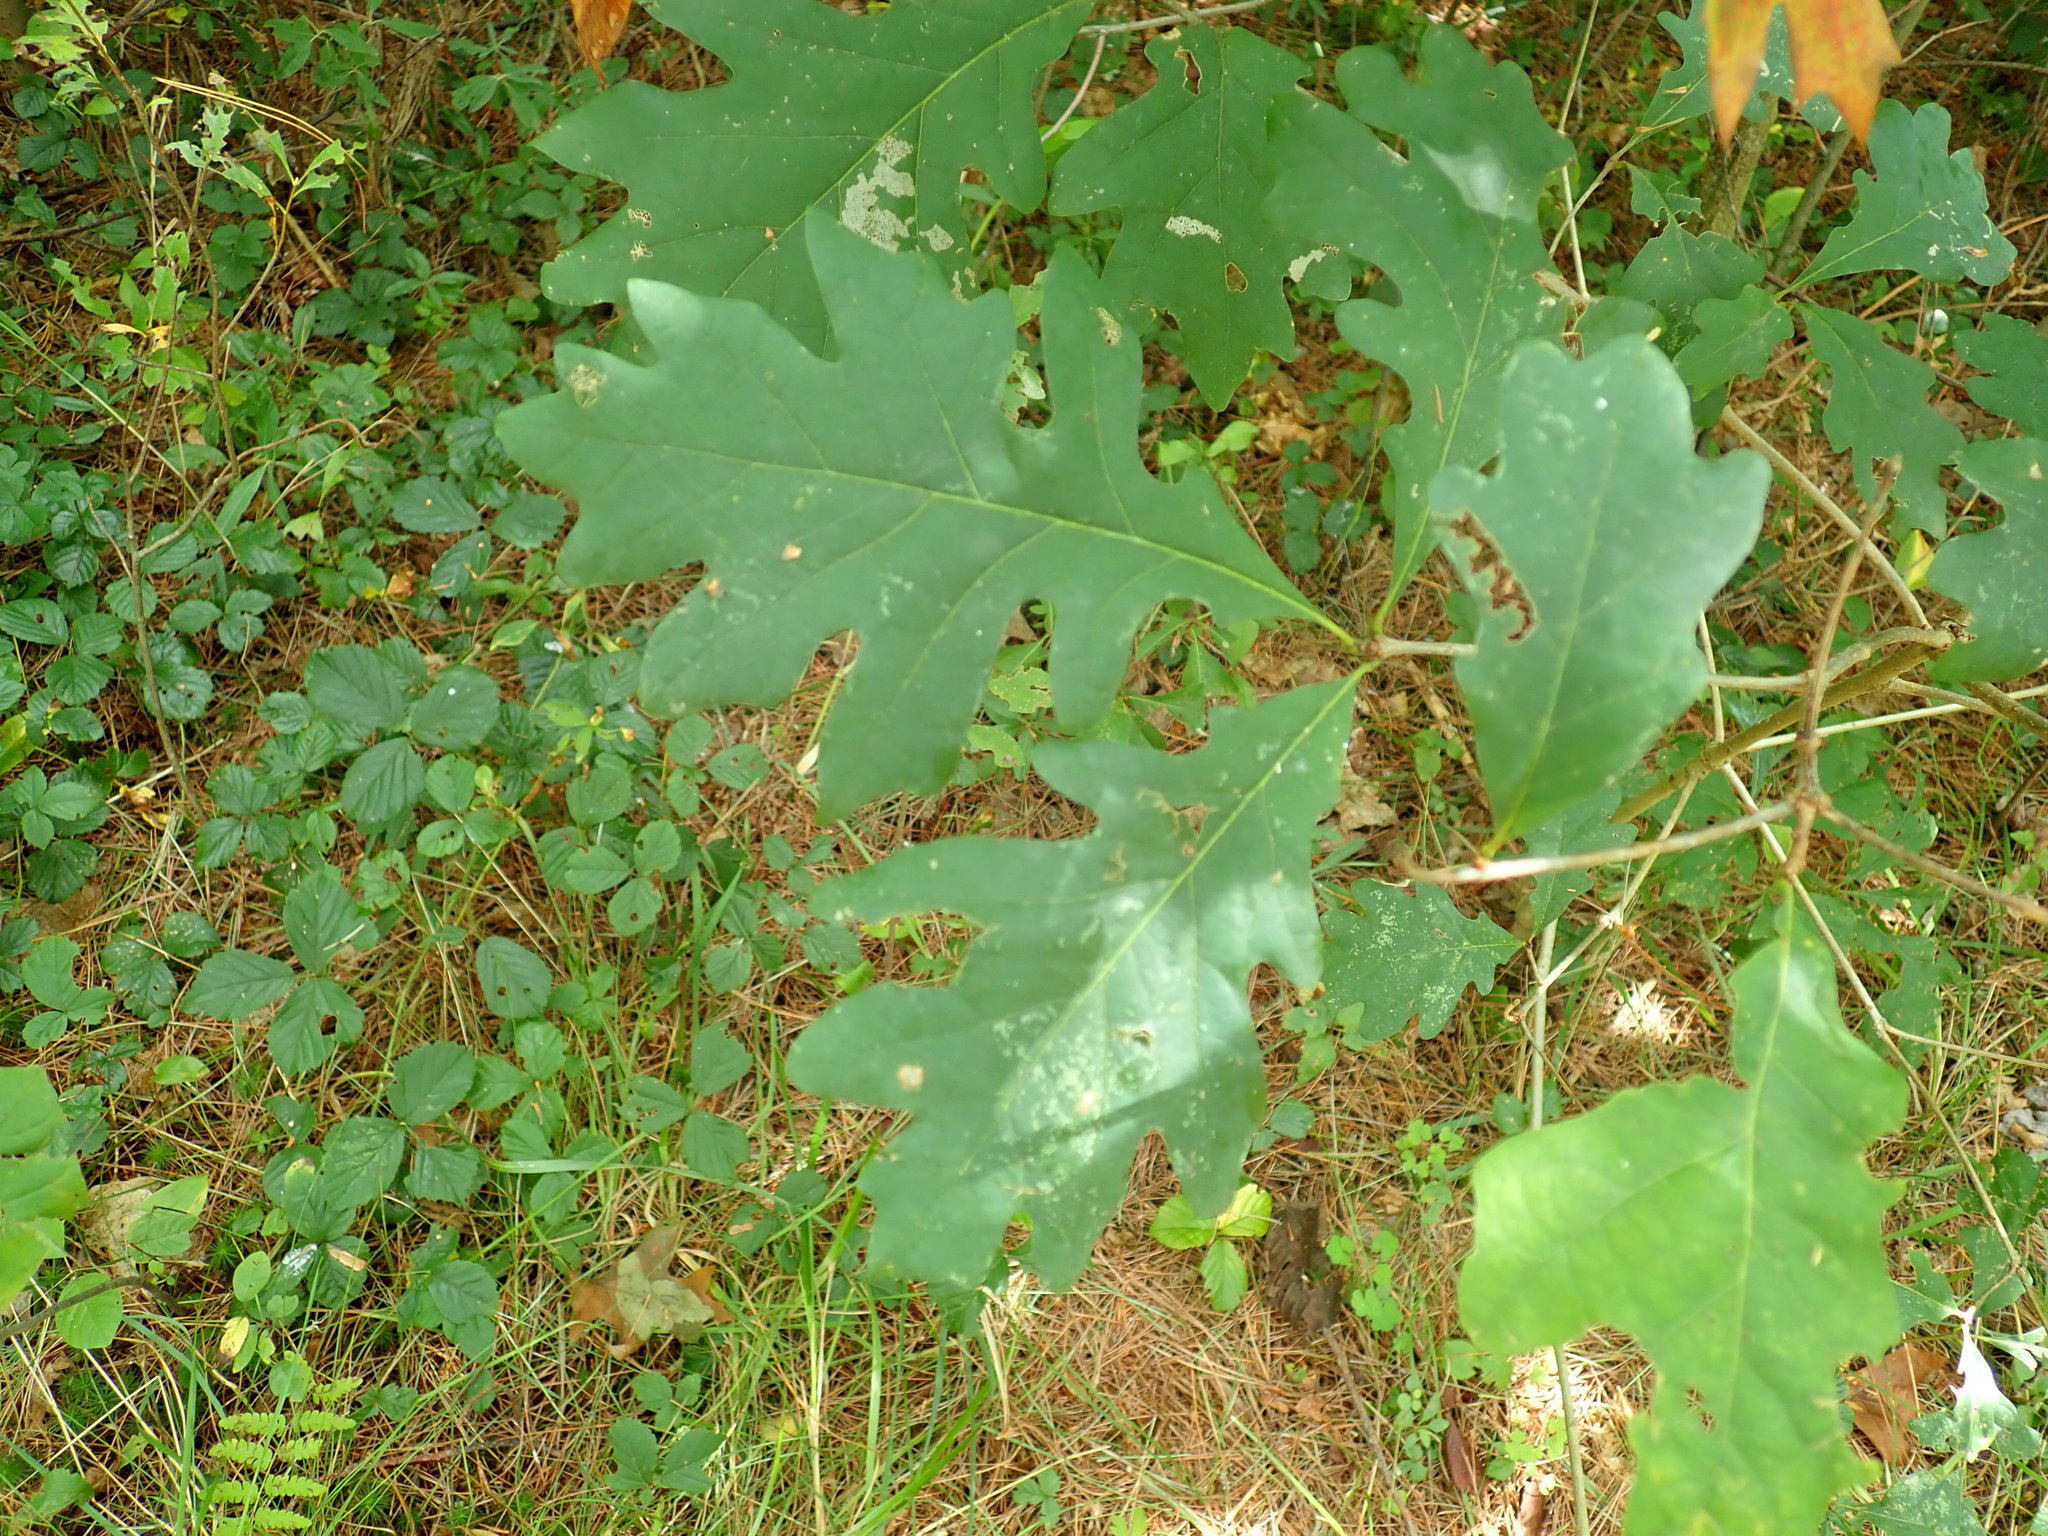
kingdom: Plantae
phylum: Tracheophyta
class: Magnoliopsida
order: Fagales
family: Fagaceae
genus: Quercus
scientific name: Quercus alba
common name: White oak
